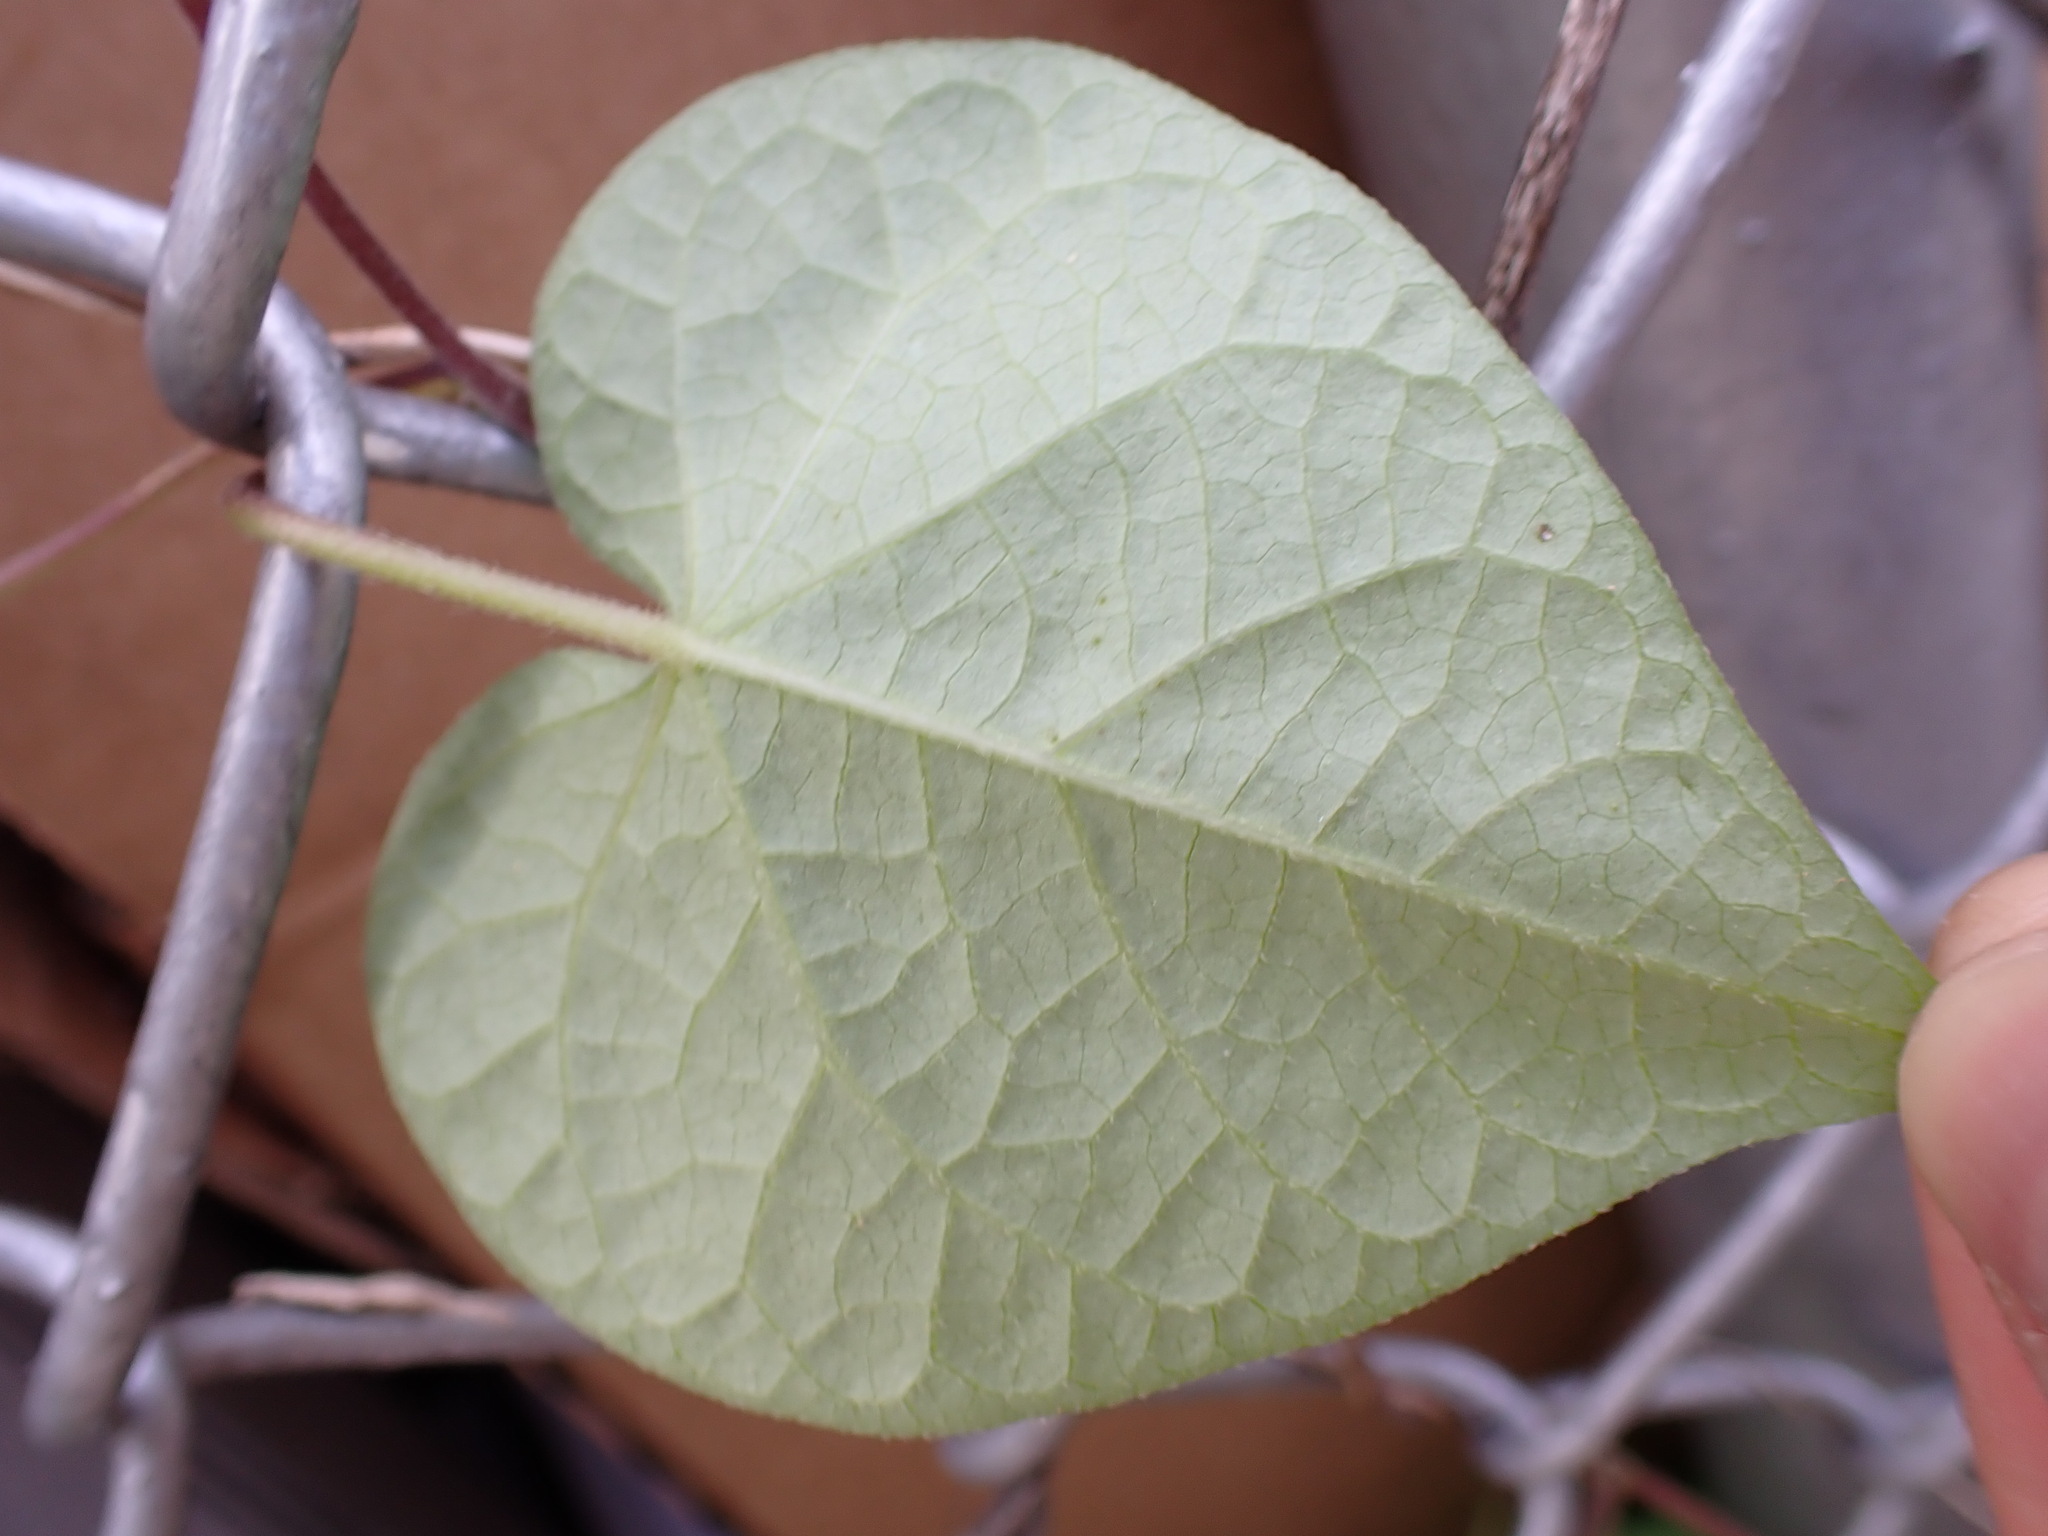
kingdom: Plantae
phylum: Tracheophyta
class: Magnoliopsida
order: Solanales
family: Convolvulaceae
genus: Ipomoea
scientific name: Ipomoea purpurea
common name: Common morning-glory
